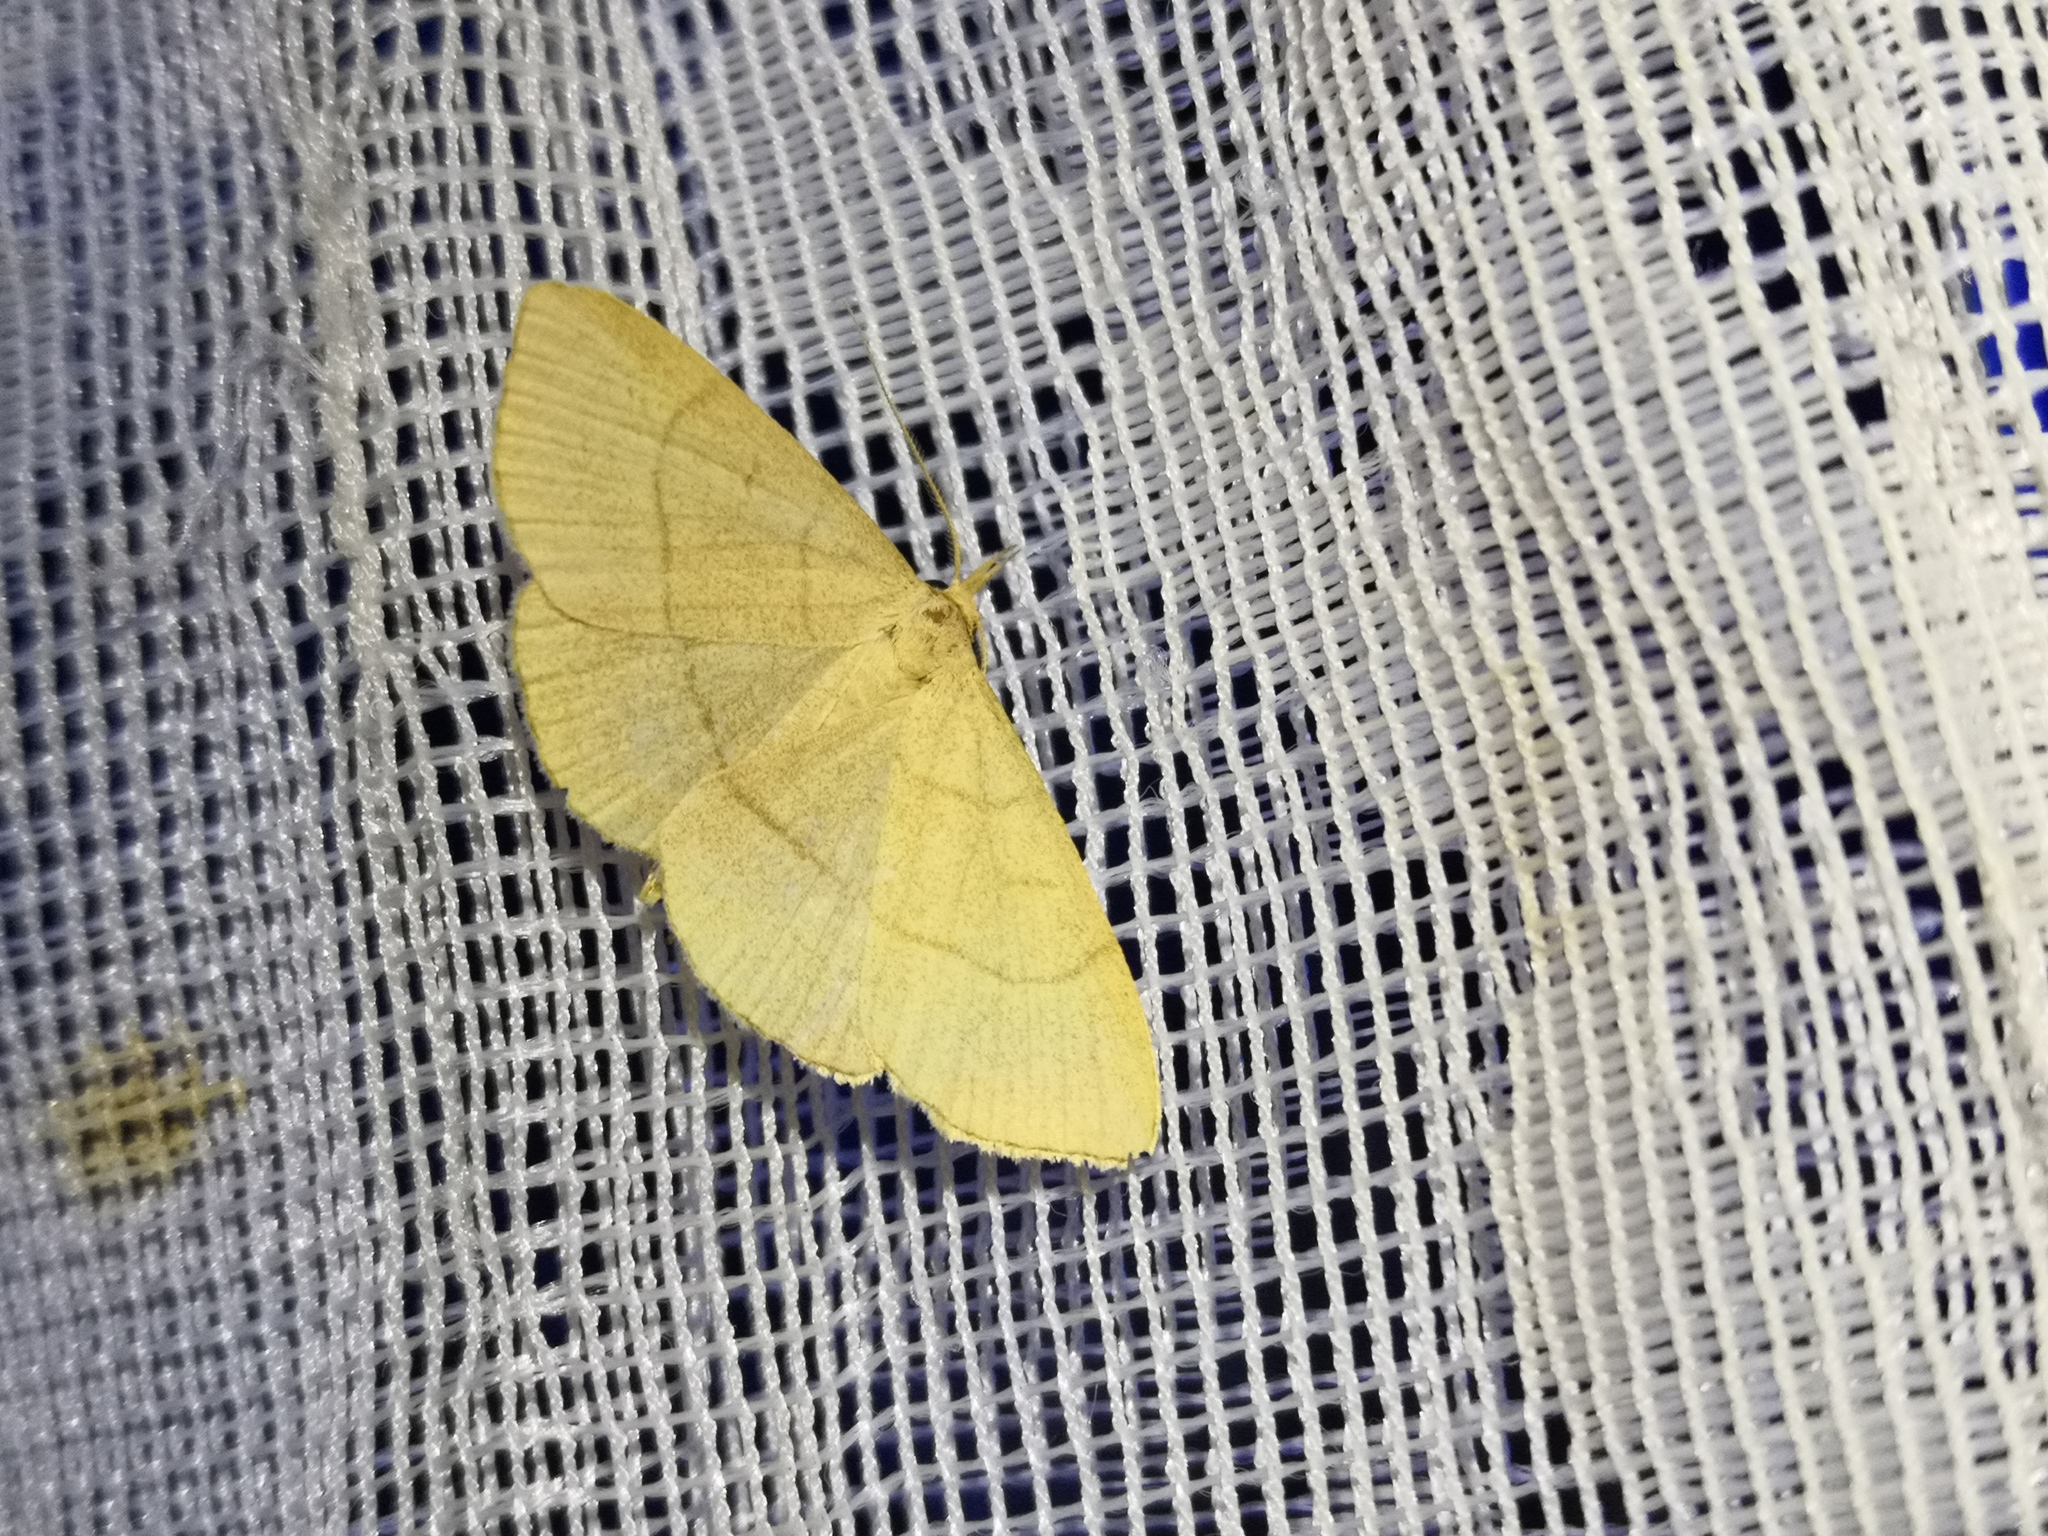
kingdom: Animalia
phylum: Arthropoda
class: Insecta
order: Lepidoptera
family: Erebidae
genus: Paracolax
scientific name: Paracolax tristalis
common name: Clay fan-foot
